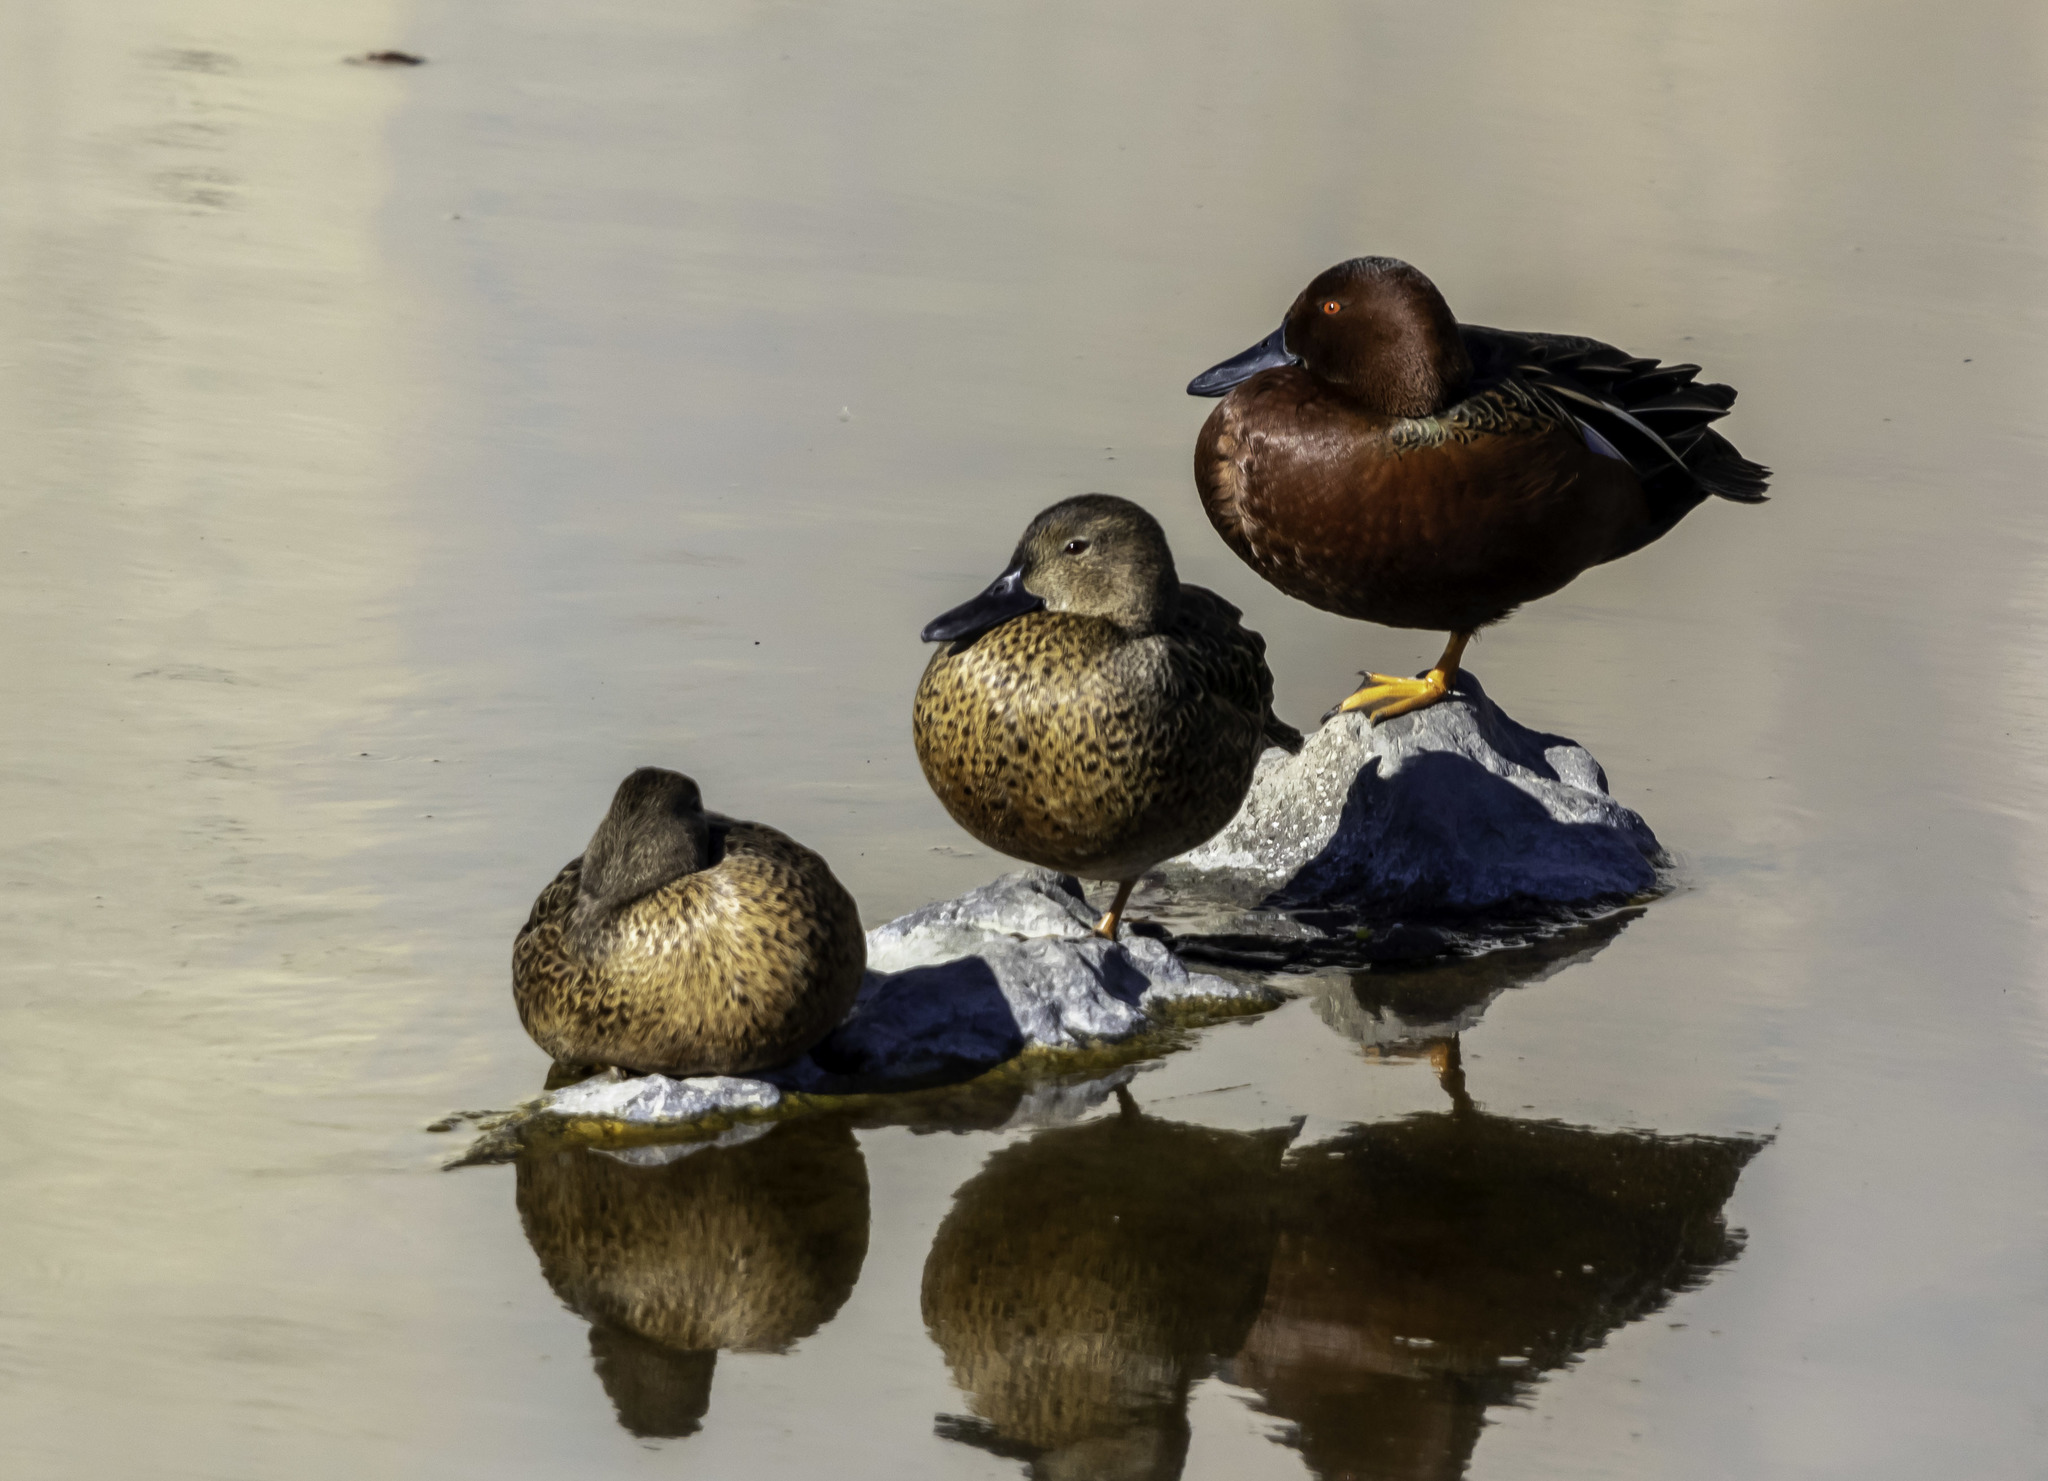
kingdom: Animalia
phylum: Chordata
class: Aves
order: Anseriformes
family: Anatidae
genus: Spatula
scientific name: Spatula cyanoptera
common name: Cinnamon teal
